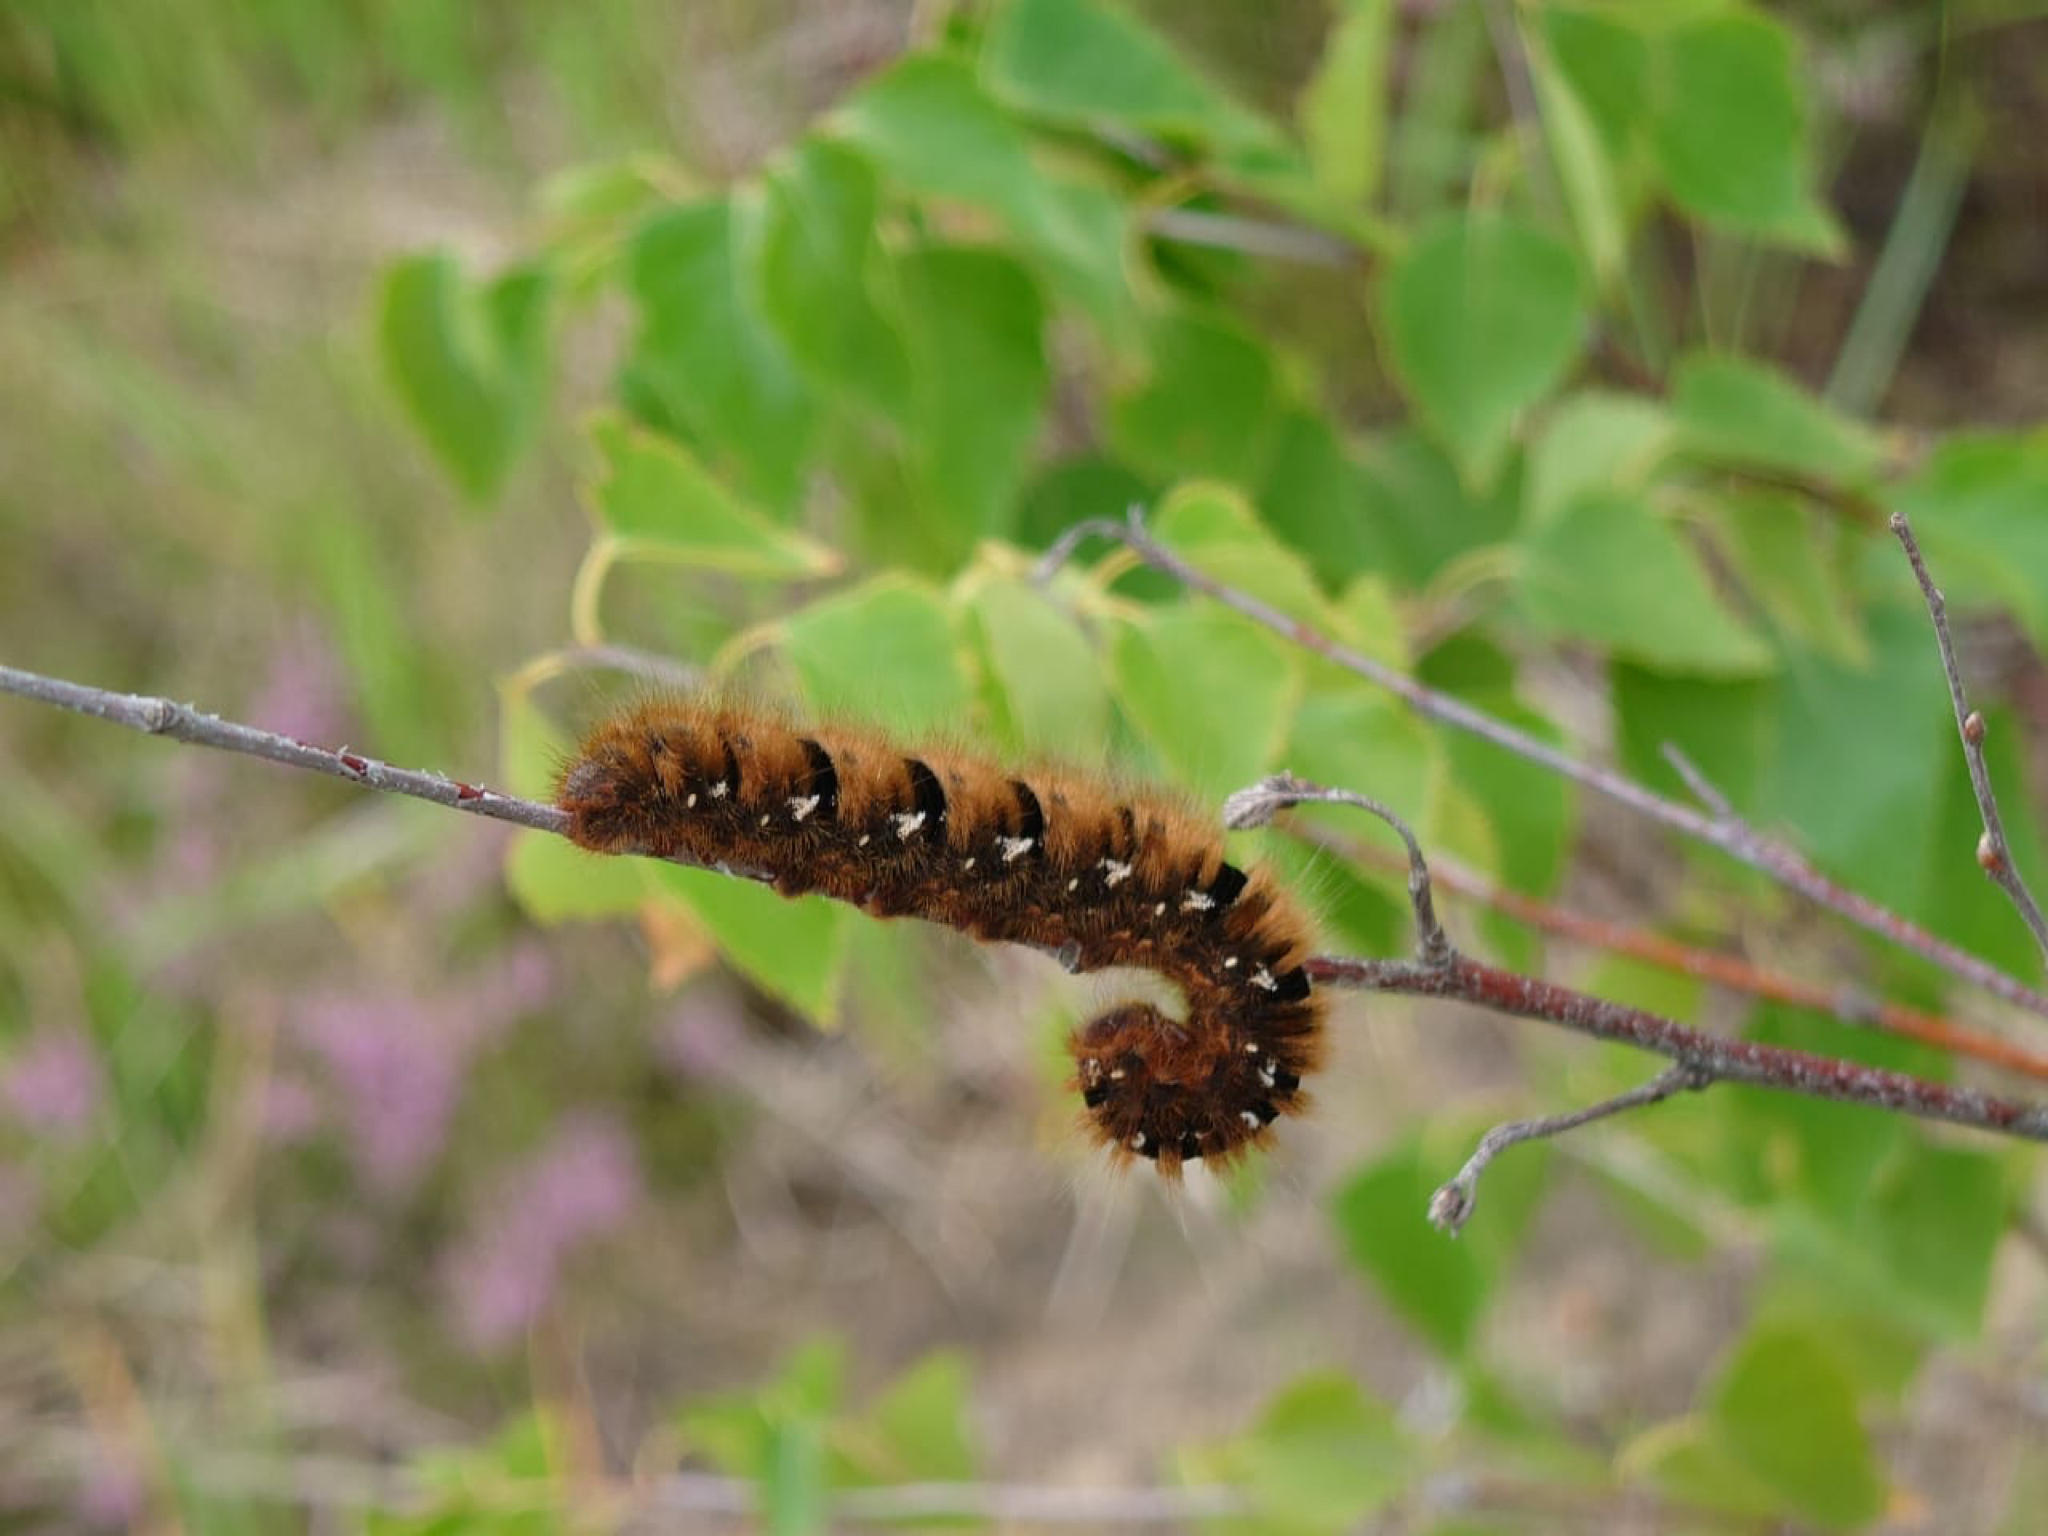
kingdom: Animalia
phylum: Arthropoda
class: Insecta
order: Lepidoptera
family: Lasiocampidae
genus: Lasiocampa
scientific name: Lasiocampa quercus
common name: Oak eggar
